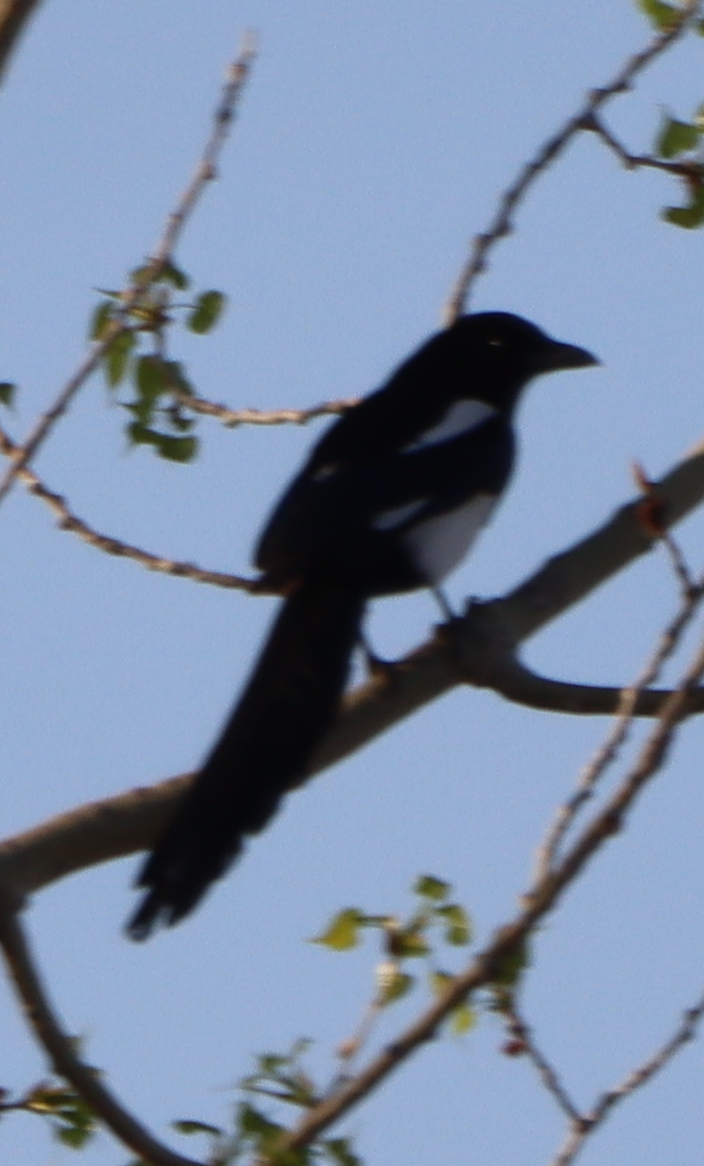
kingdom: Animalia
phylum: Chordata
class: Aves
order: Passeriformes
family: Corvidae
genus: Pica
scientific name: Pica hudsonia
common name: Black-billed magpie
